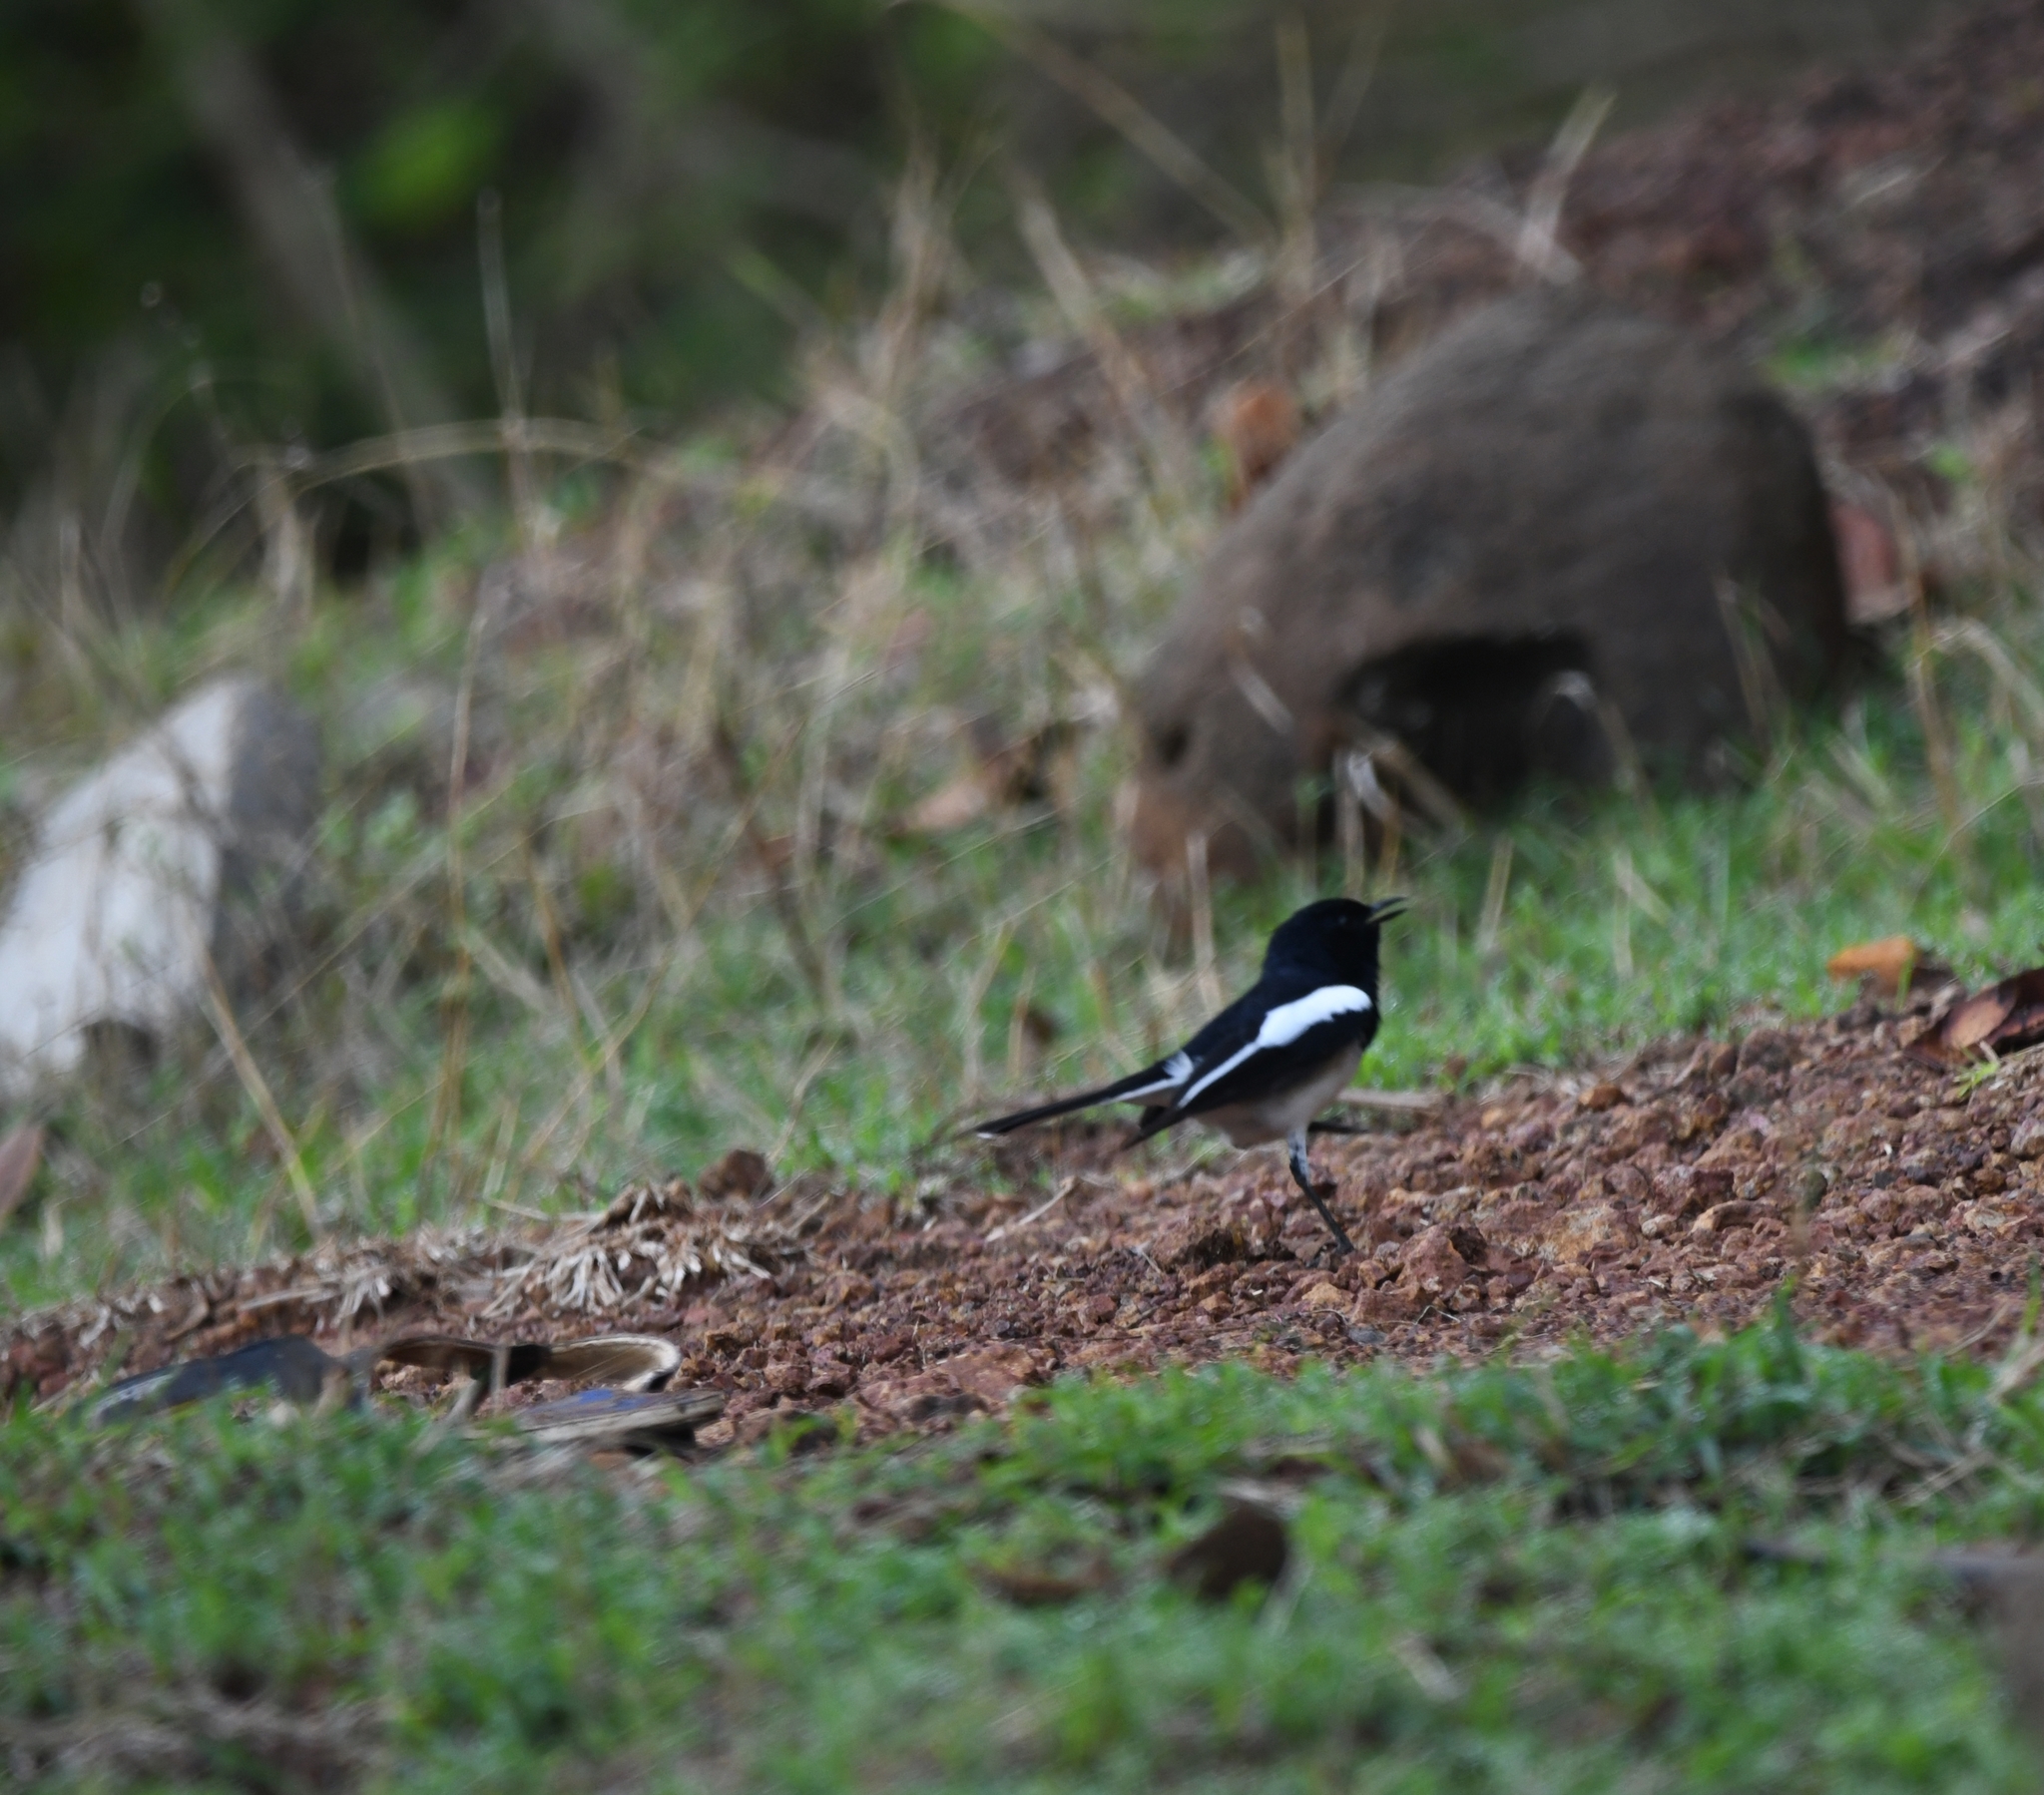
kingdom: Animalia
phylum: Chordata
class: Aves
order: Passeriformes
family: Muscicapidae
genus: Copsychus
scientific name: Copsychus saularis
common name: Oriental magpie-robin
